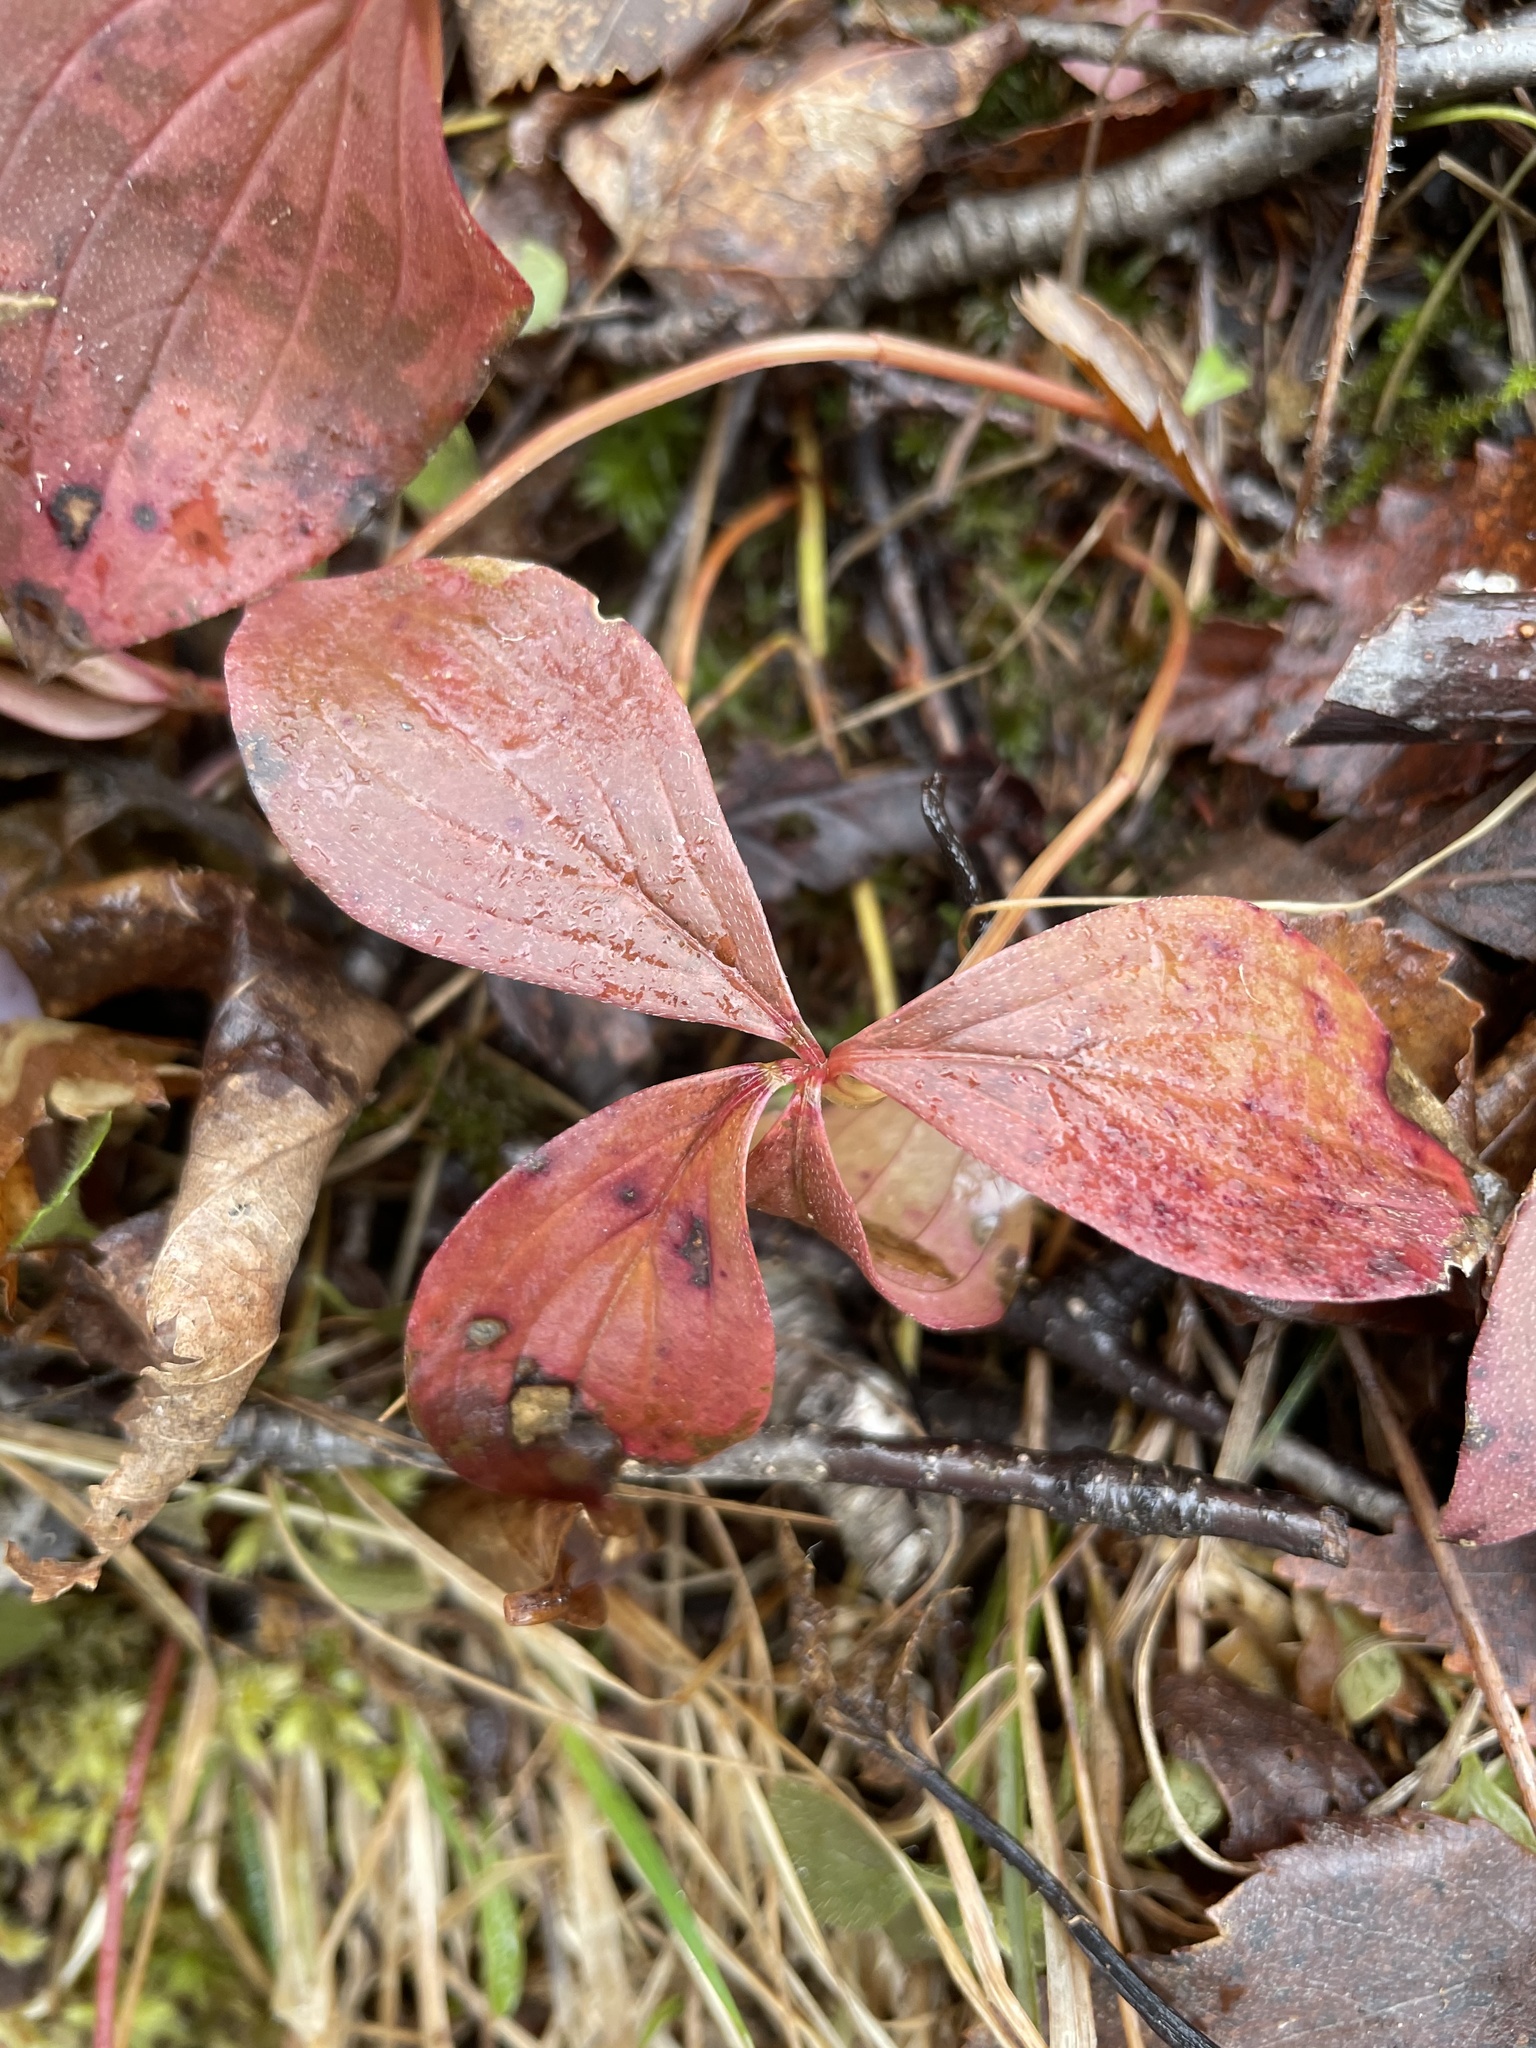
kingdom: Plantae
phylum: Tracheophyta
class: Magnoliopsida
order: Cornales
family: Cornaceae
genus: Cornus
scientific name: Cornus canadensis
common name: Creeping dogwood
